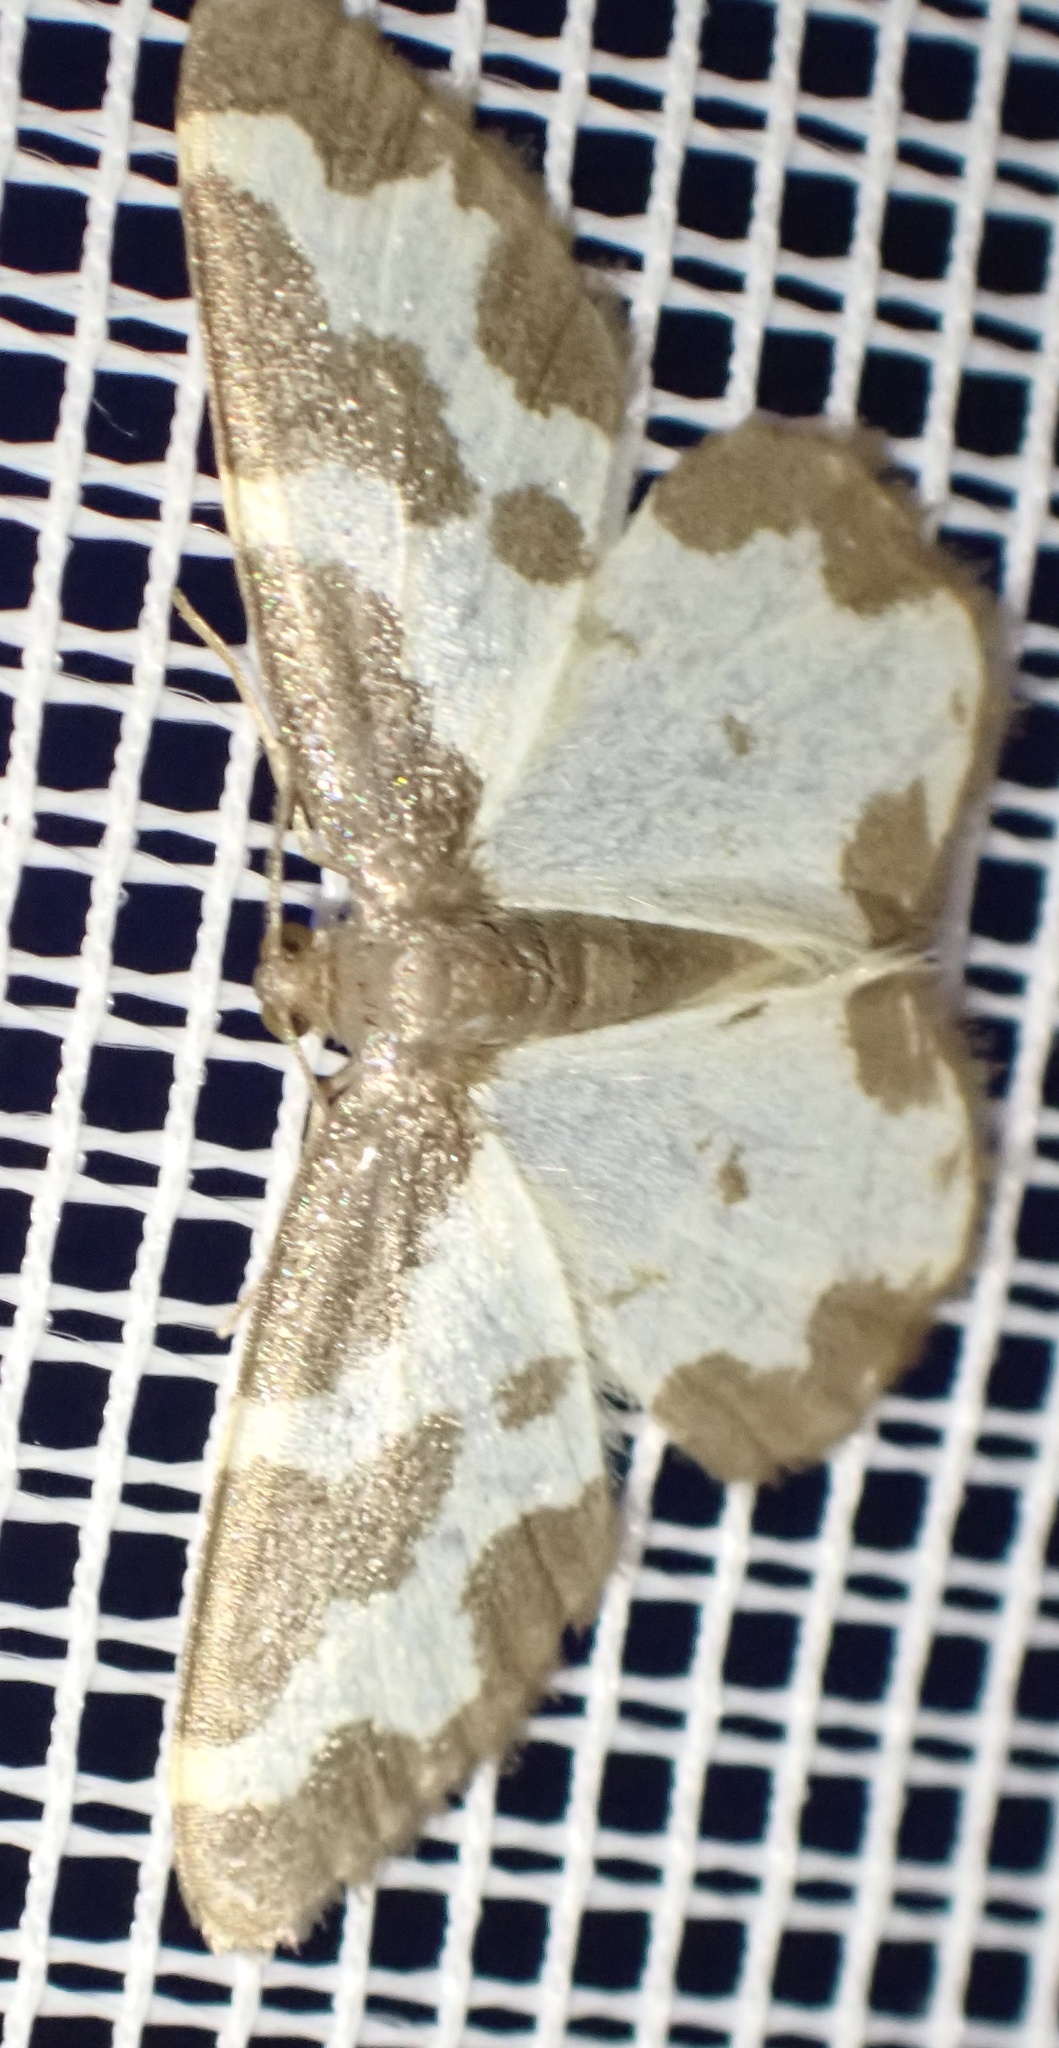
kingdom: Animalia
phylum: Arthropoda
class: Insecta
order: Lepidoptera
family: Geometridae
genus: Lomaspilis
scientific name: Lomaspilis marginata
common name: Clouded border
